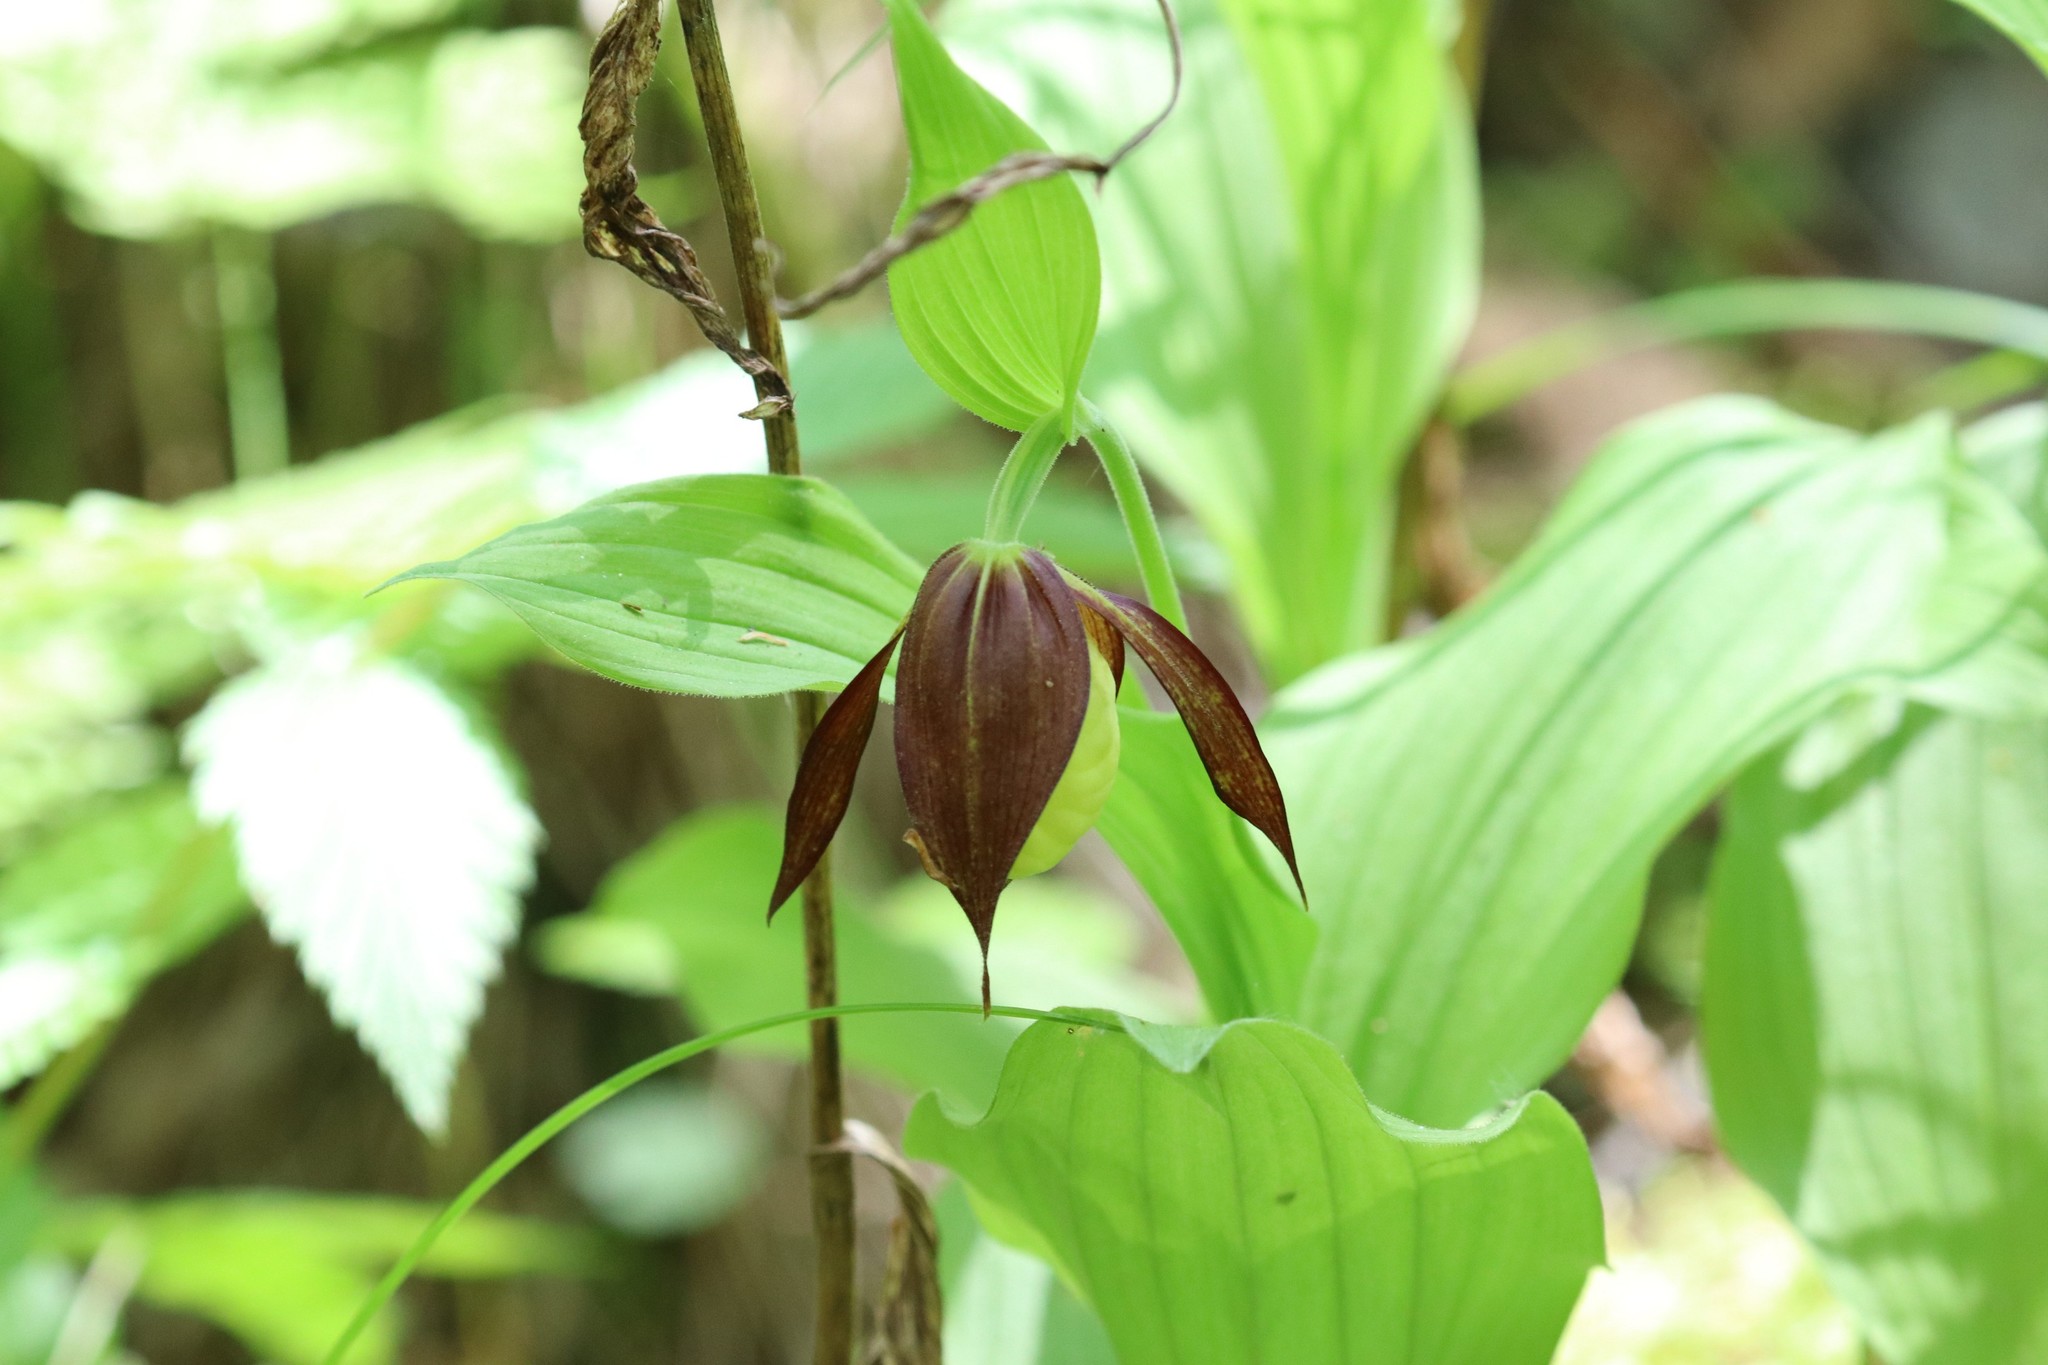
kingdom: Plantae
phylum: Tracheophyta
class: Liliopsida
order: Asparagales
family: Orchidaceae
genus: Cypripedium
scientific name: Cypripedium calceolus
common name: Lady's-slipper
